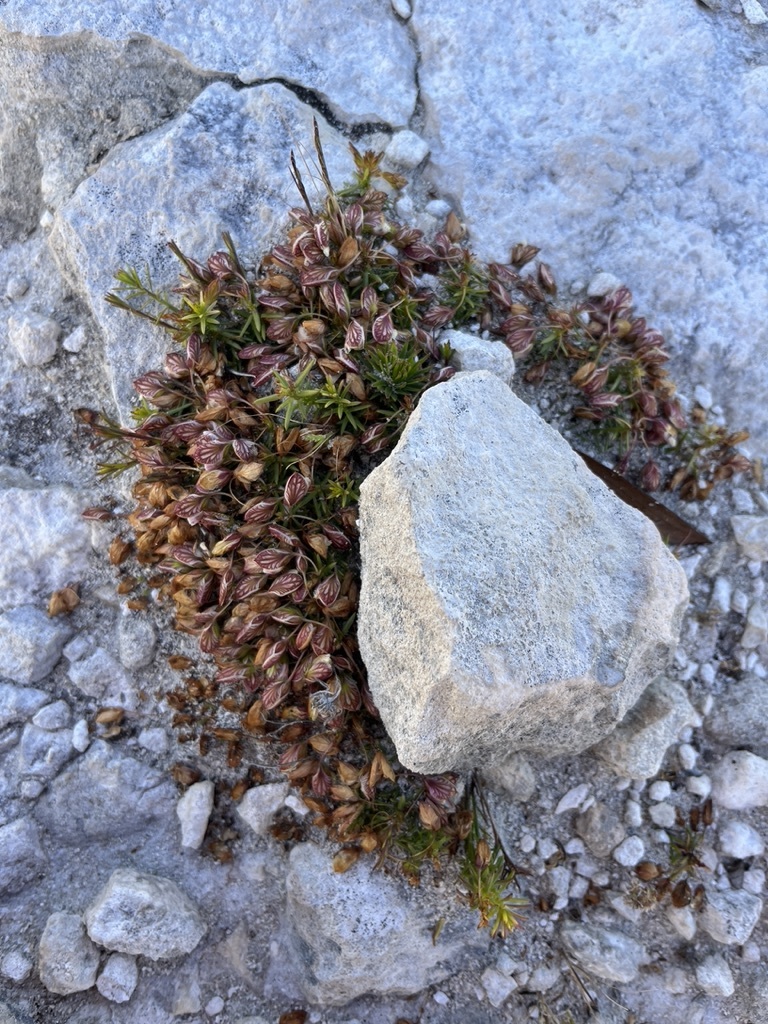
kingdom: Plantae
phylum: Tracheophyta
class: Magnoliopsida
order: Fabales
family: Polygalaceae
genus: Polygala
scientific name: Polygala dasyphylla
